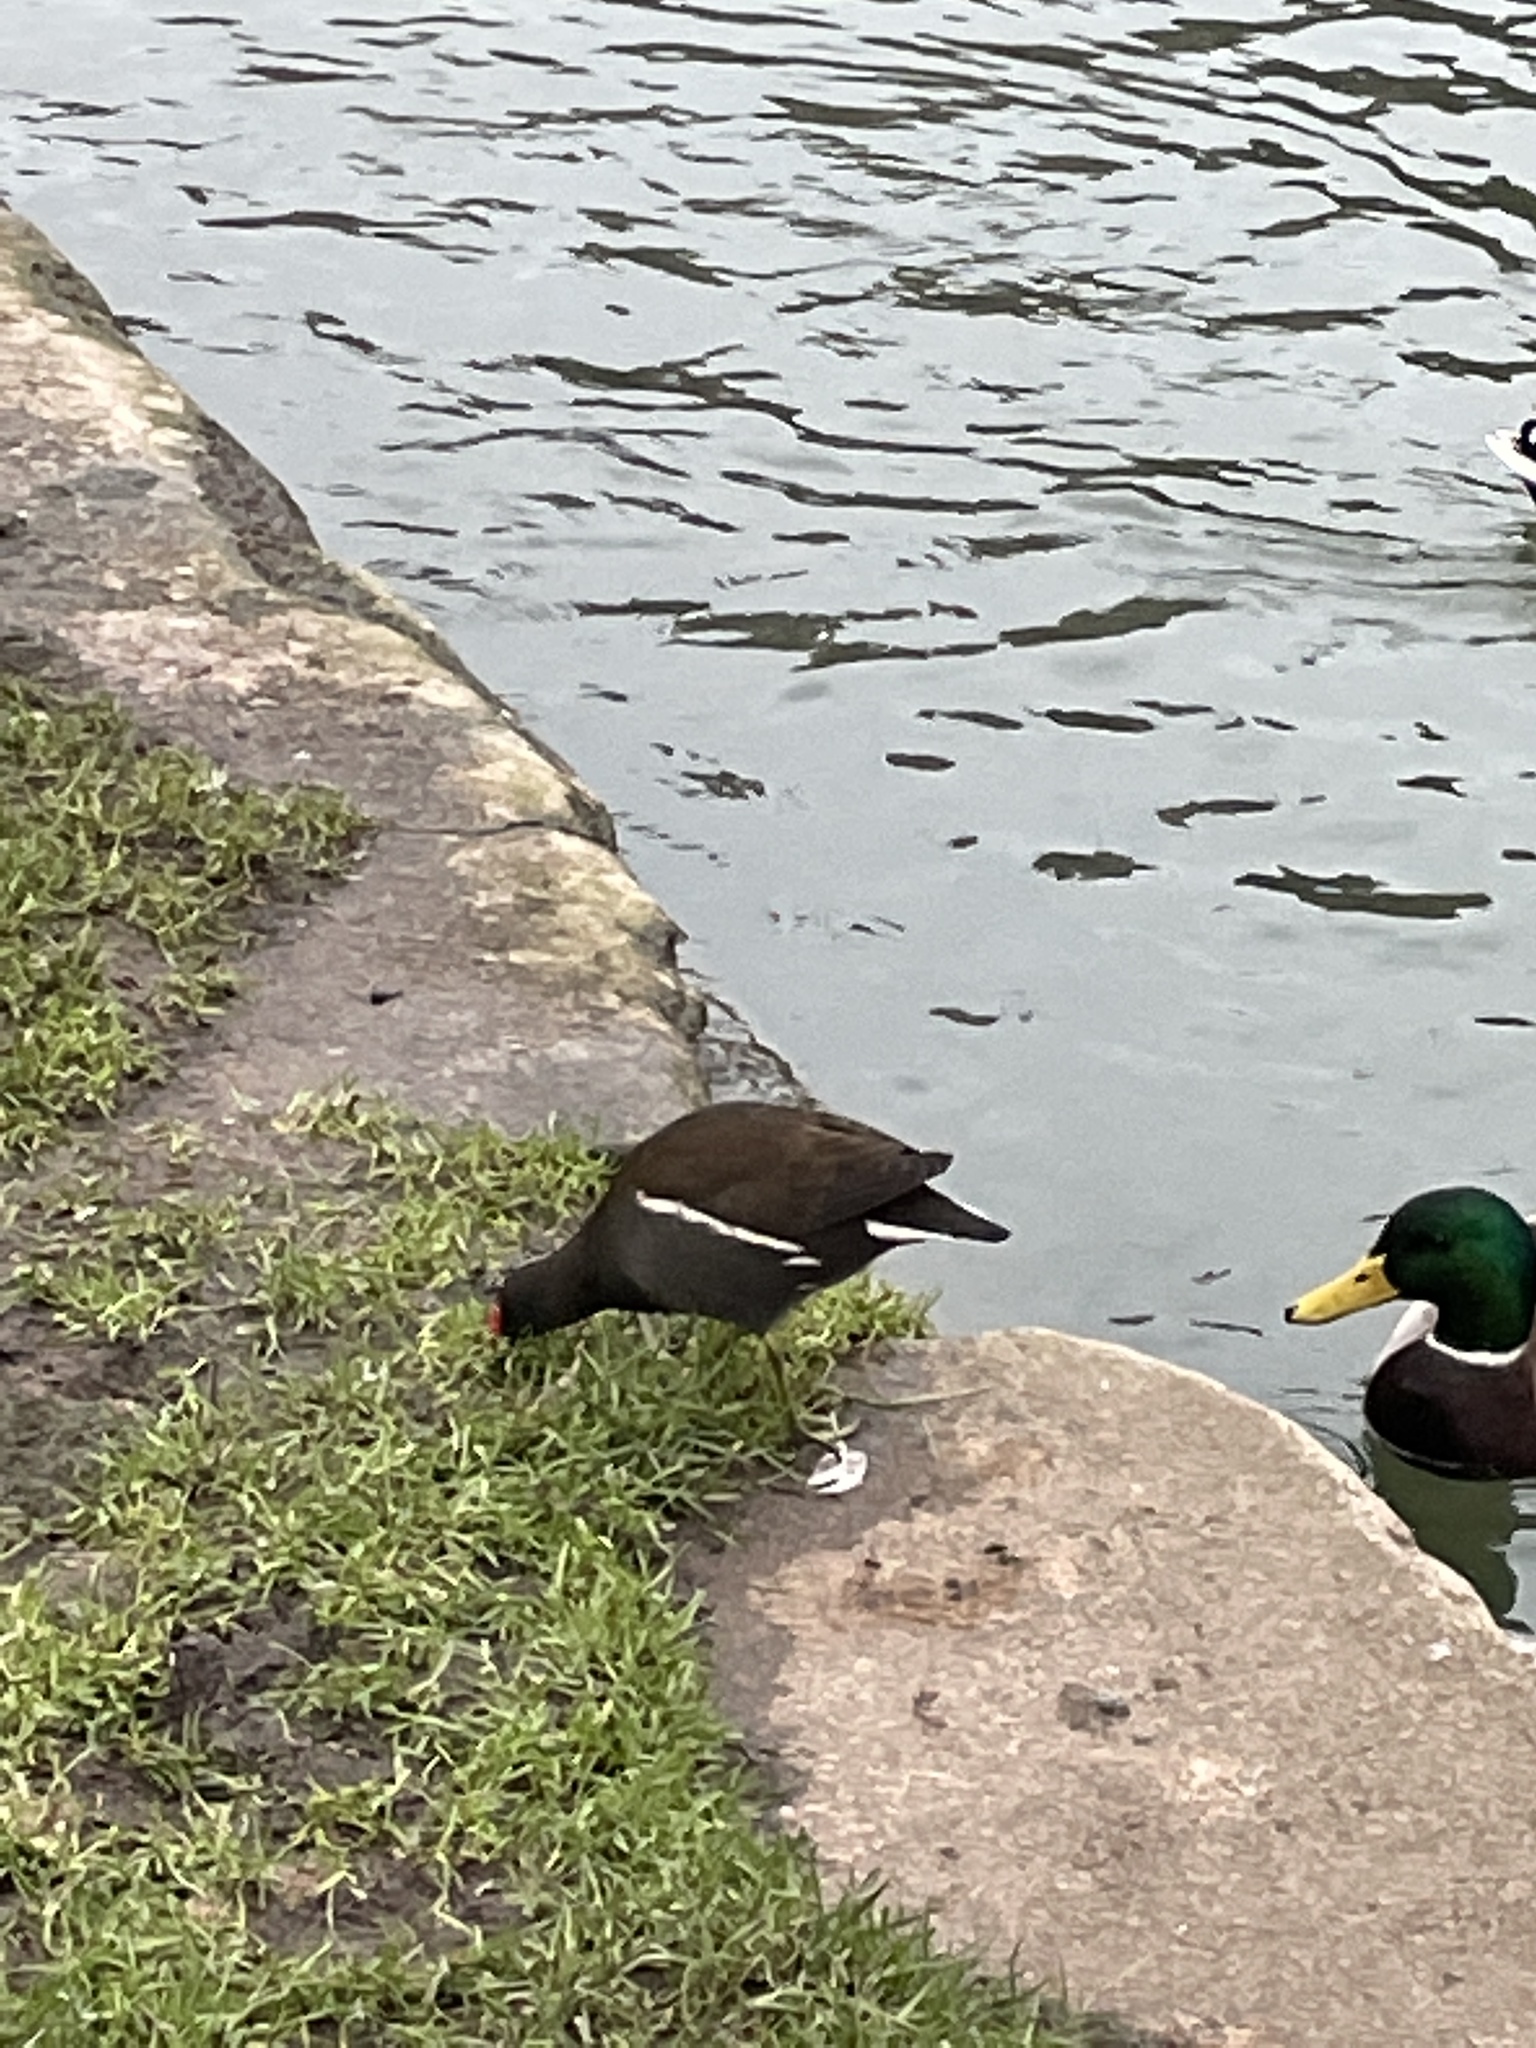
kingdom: Animalia
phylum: Chordata
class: Aves
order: Gruiformes
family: Rallidae
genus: Gallinula
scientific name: Gallinula chloropus
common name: Common moorhen
